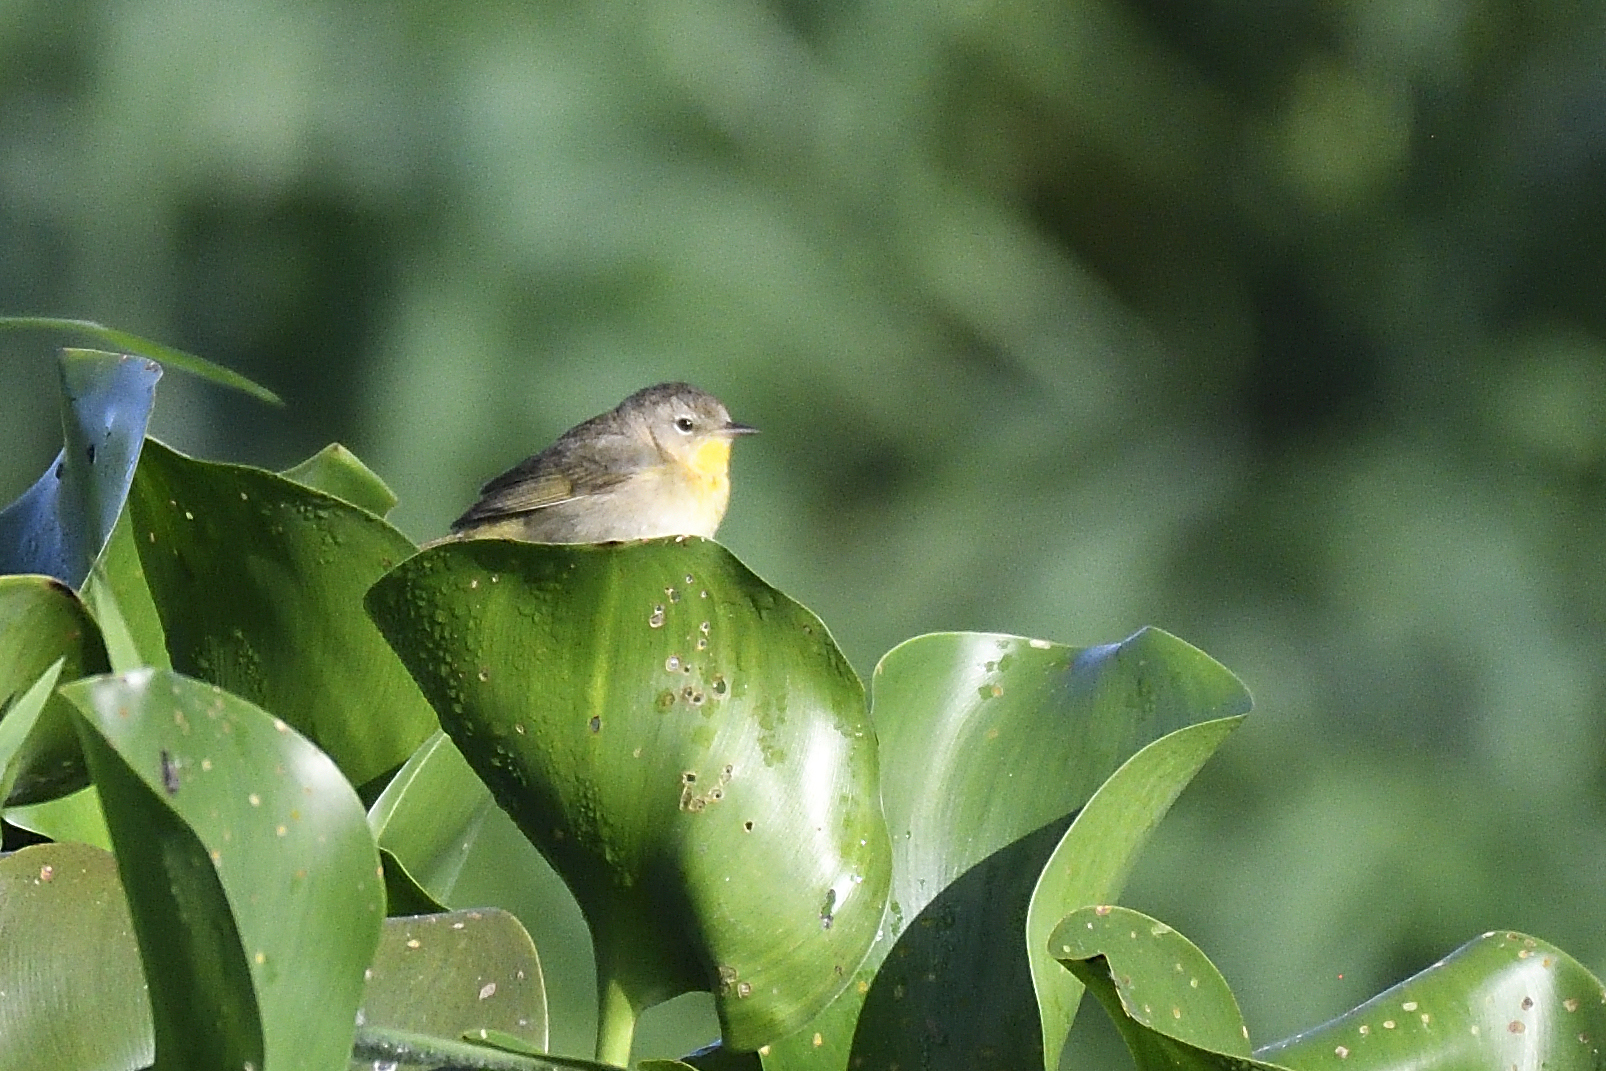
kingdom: Animalia
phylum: Chordata
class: Aves
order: Passeriformes
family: Parulidae
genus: Geothlypis
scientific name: Geothlypis trichas
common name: Common yellowthroat
